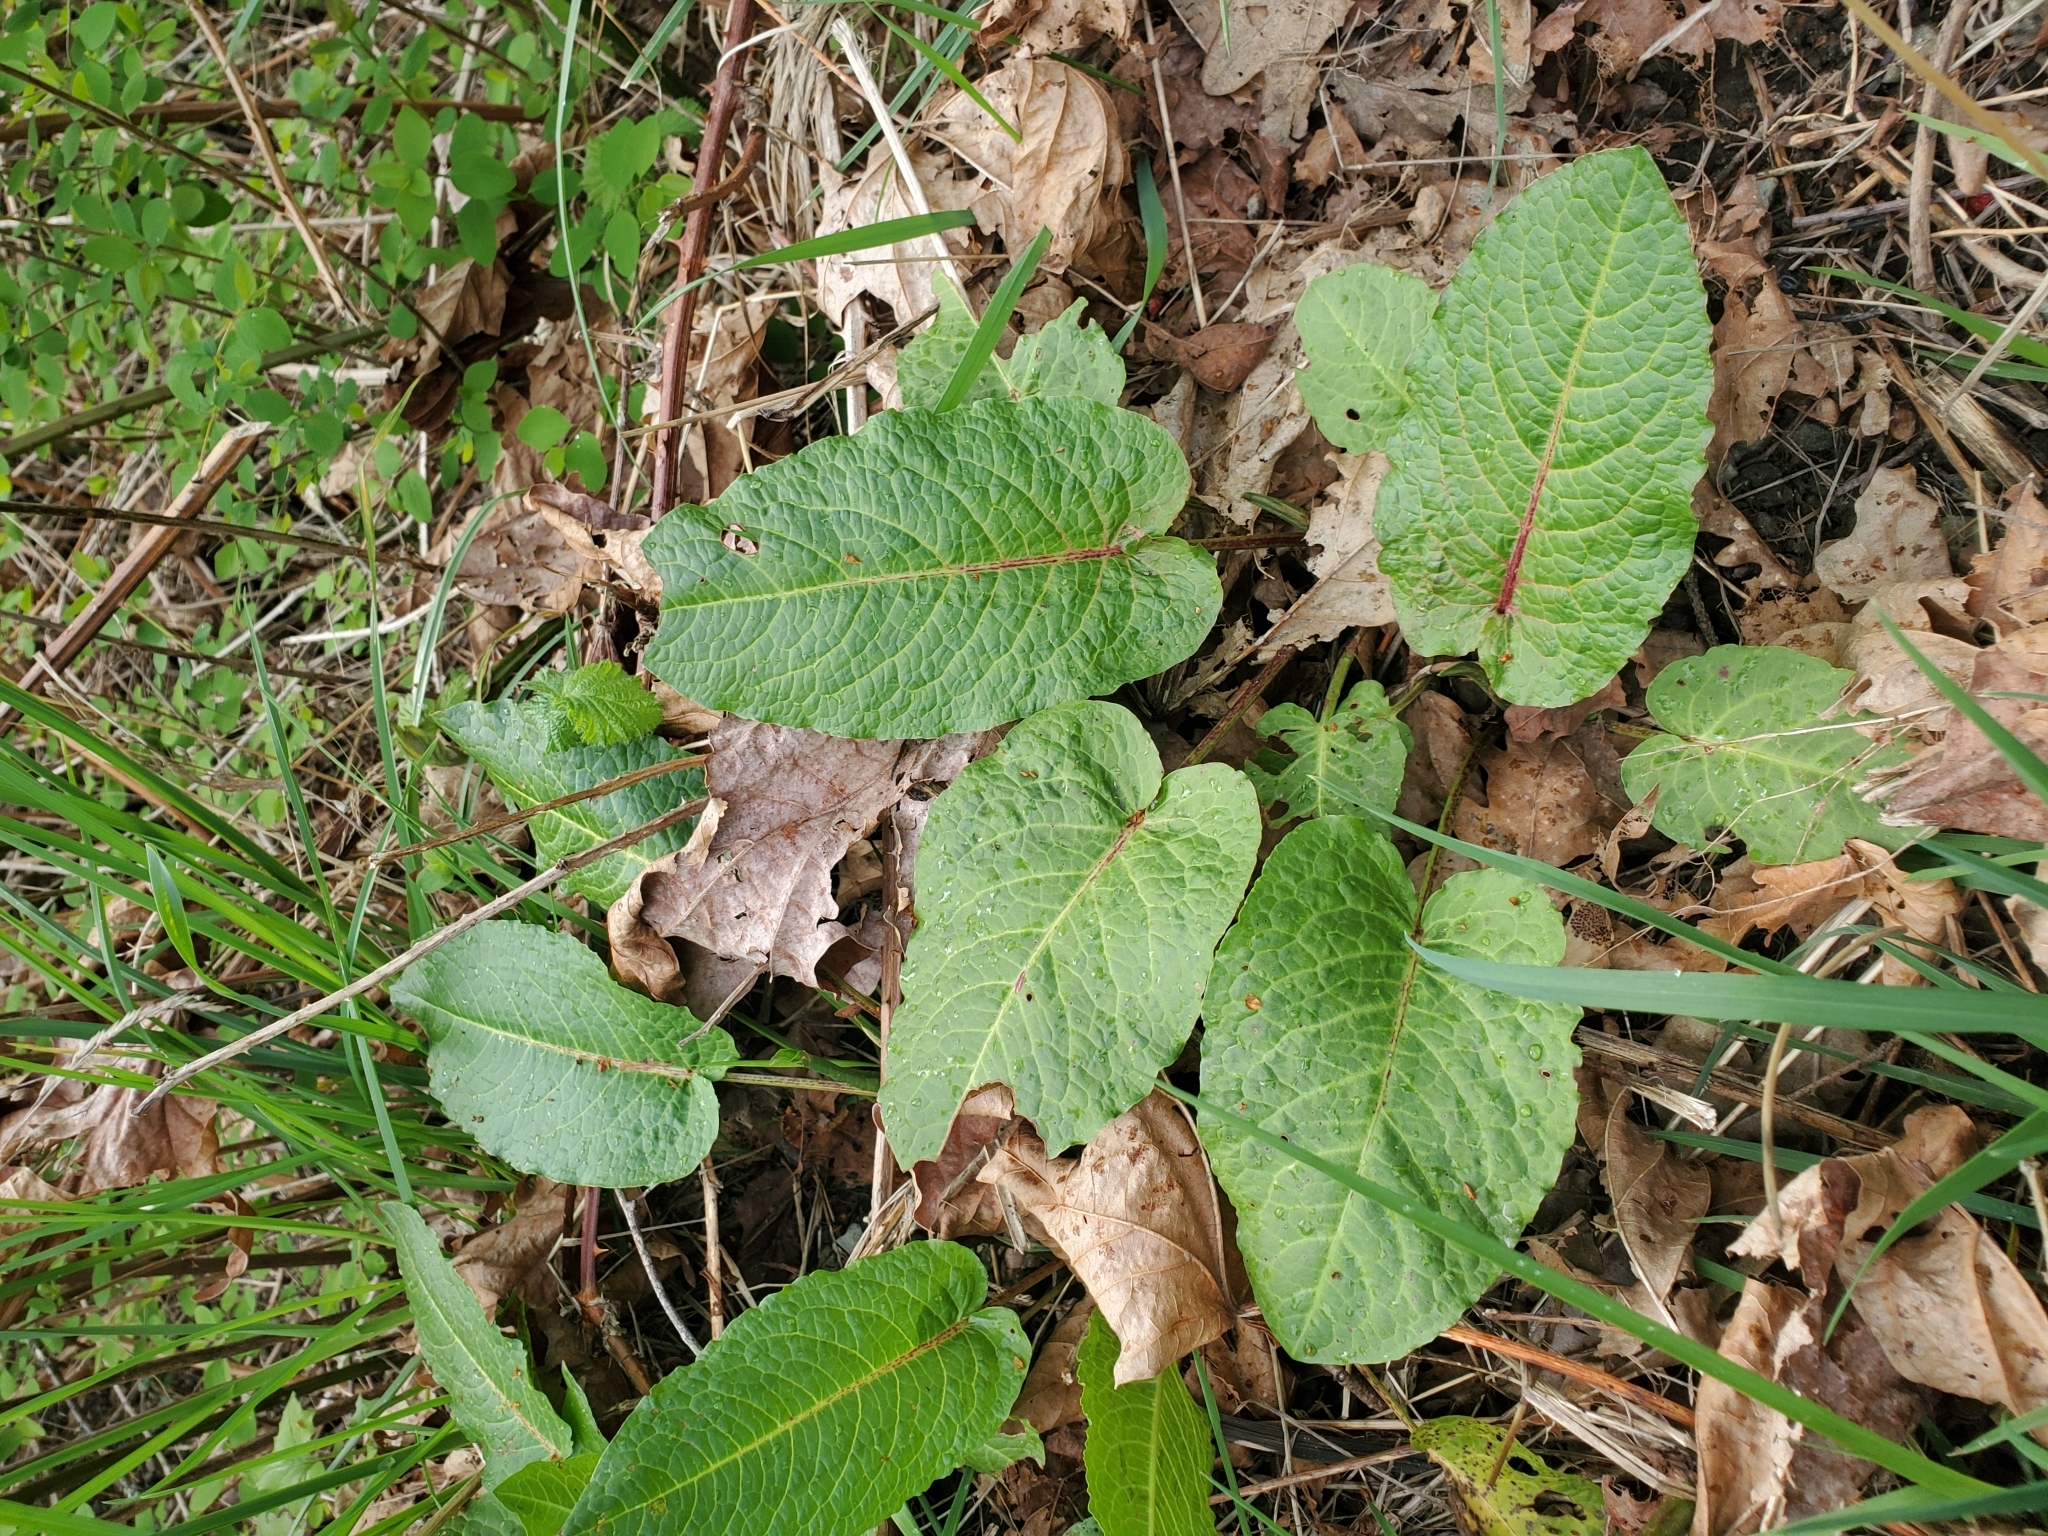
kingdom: Plantae
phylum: Tracheophyta
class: Magnoliopsida
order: Caryophyllales
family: Polygonaceae
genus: Rumex
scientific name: Rumex obtusifolius
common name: Bitter dock
